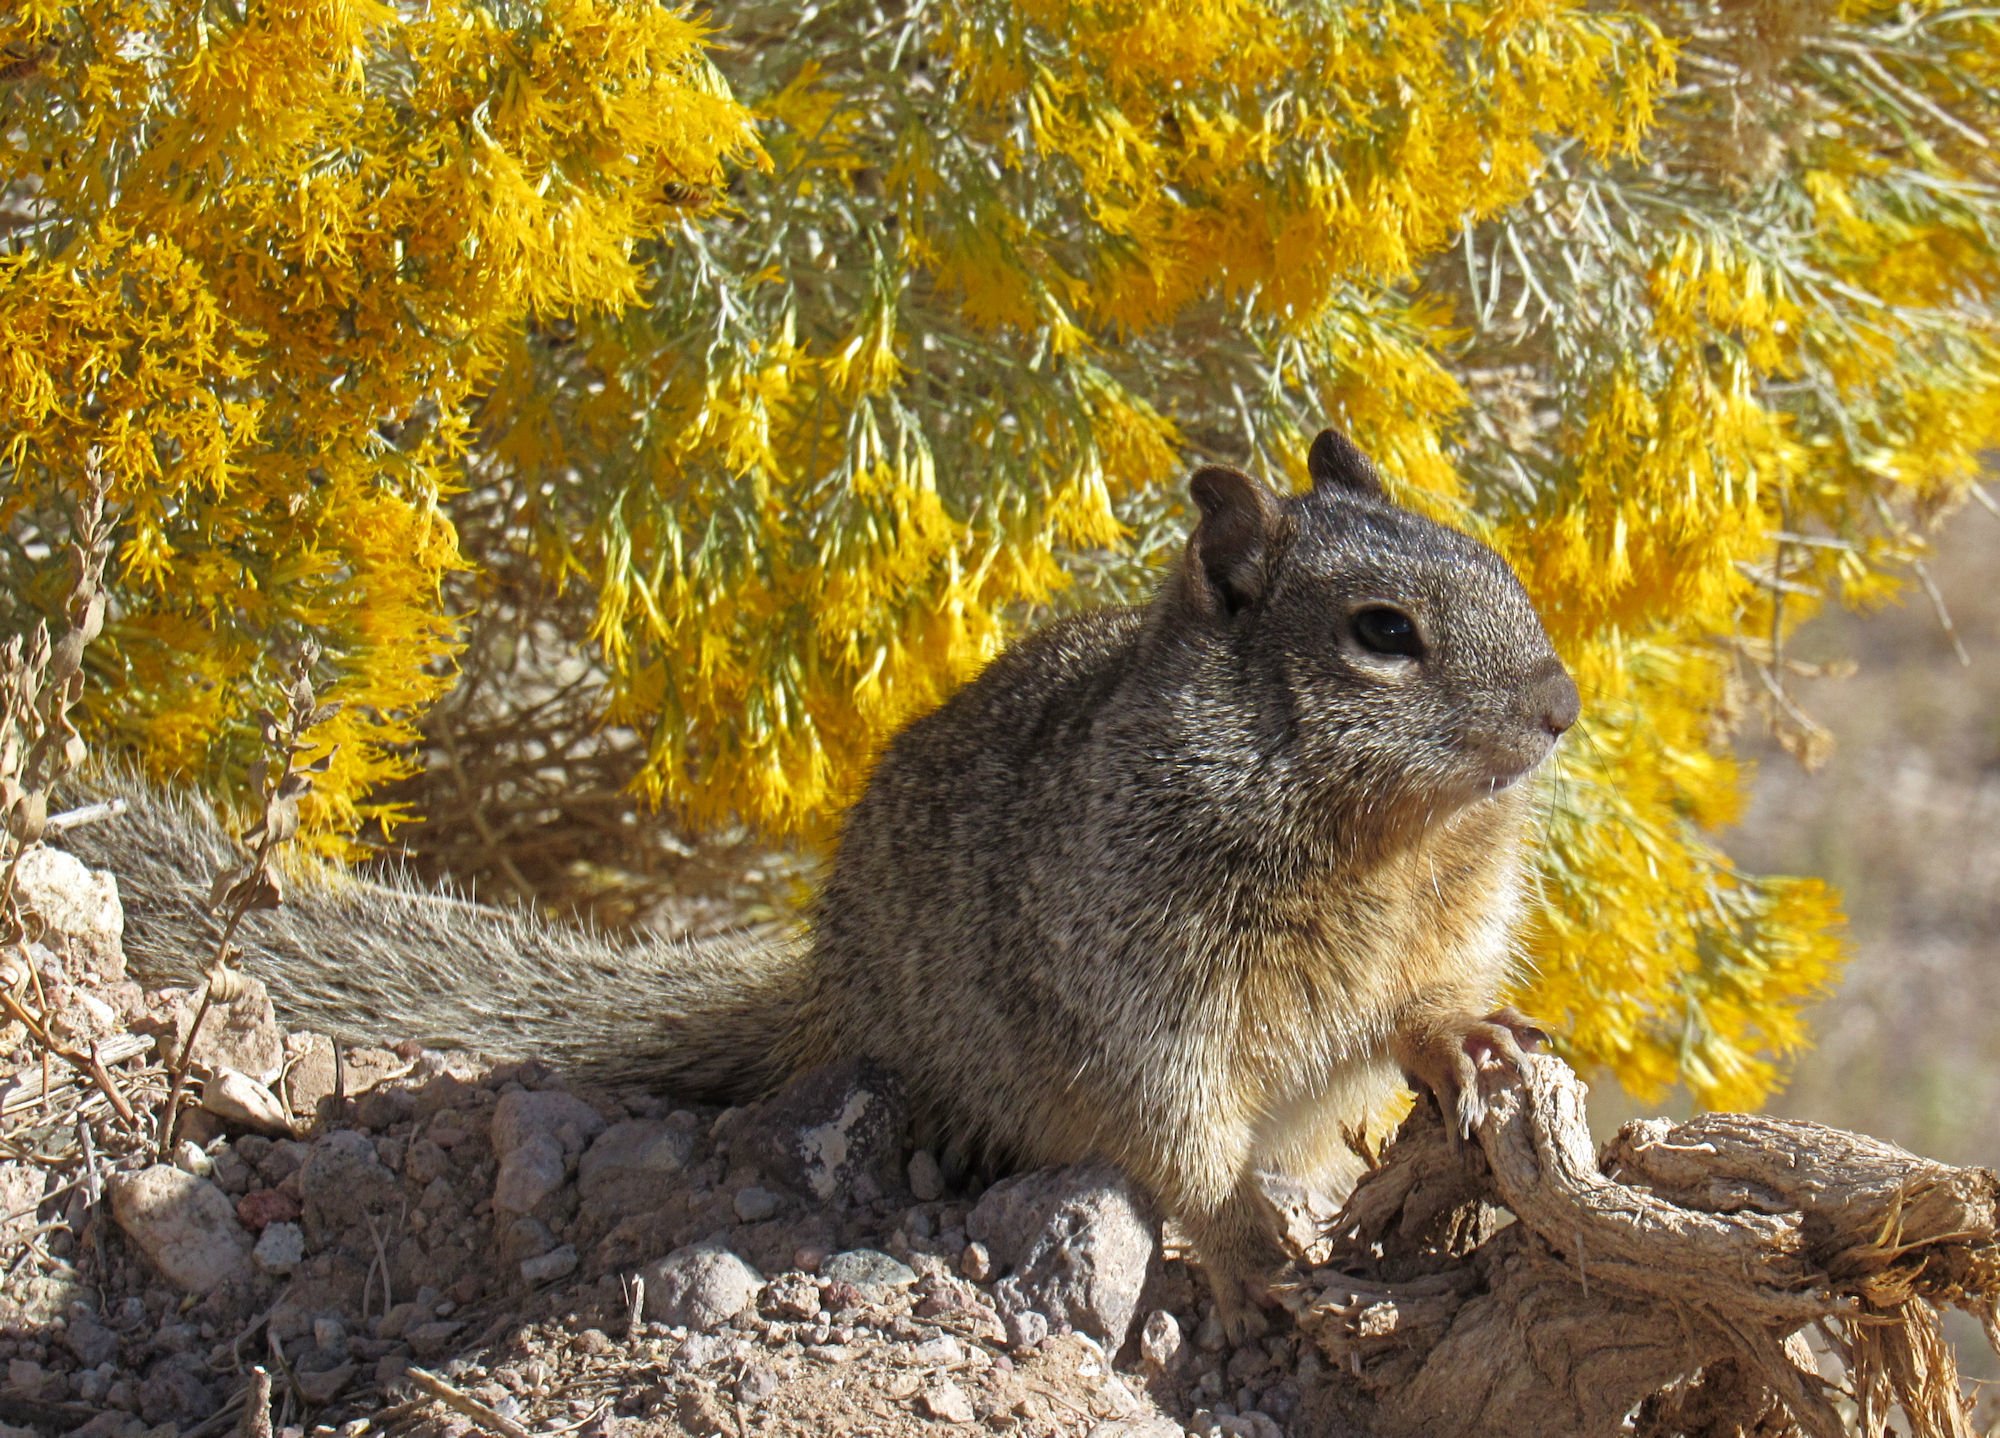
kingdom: Animalia
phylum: Chordata
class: Mammalia
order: Rodentia
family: Sciuridae
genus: Otospermophilus
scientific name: Otospermophilus variegatus
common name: Rock squirrel
